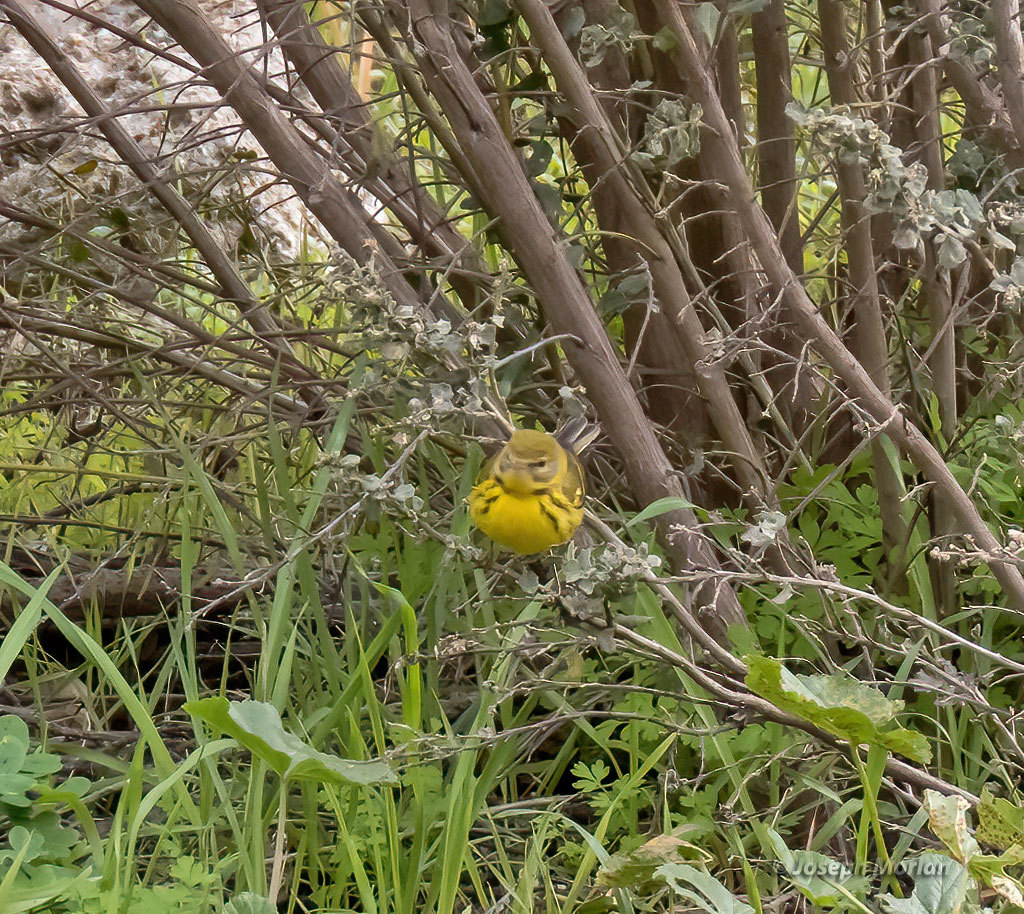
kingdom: Animalia
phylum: Chordata
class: Aves
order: Passeriformes
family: Parulidae
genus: Setophaga
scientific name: Setophaga discolor
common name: Prairie warbler
